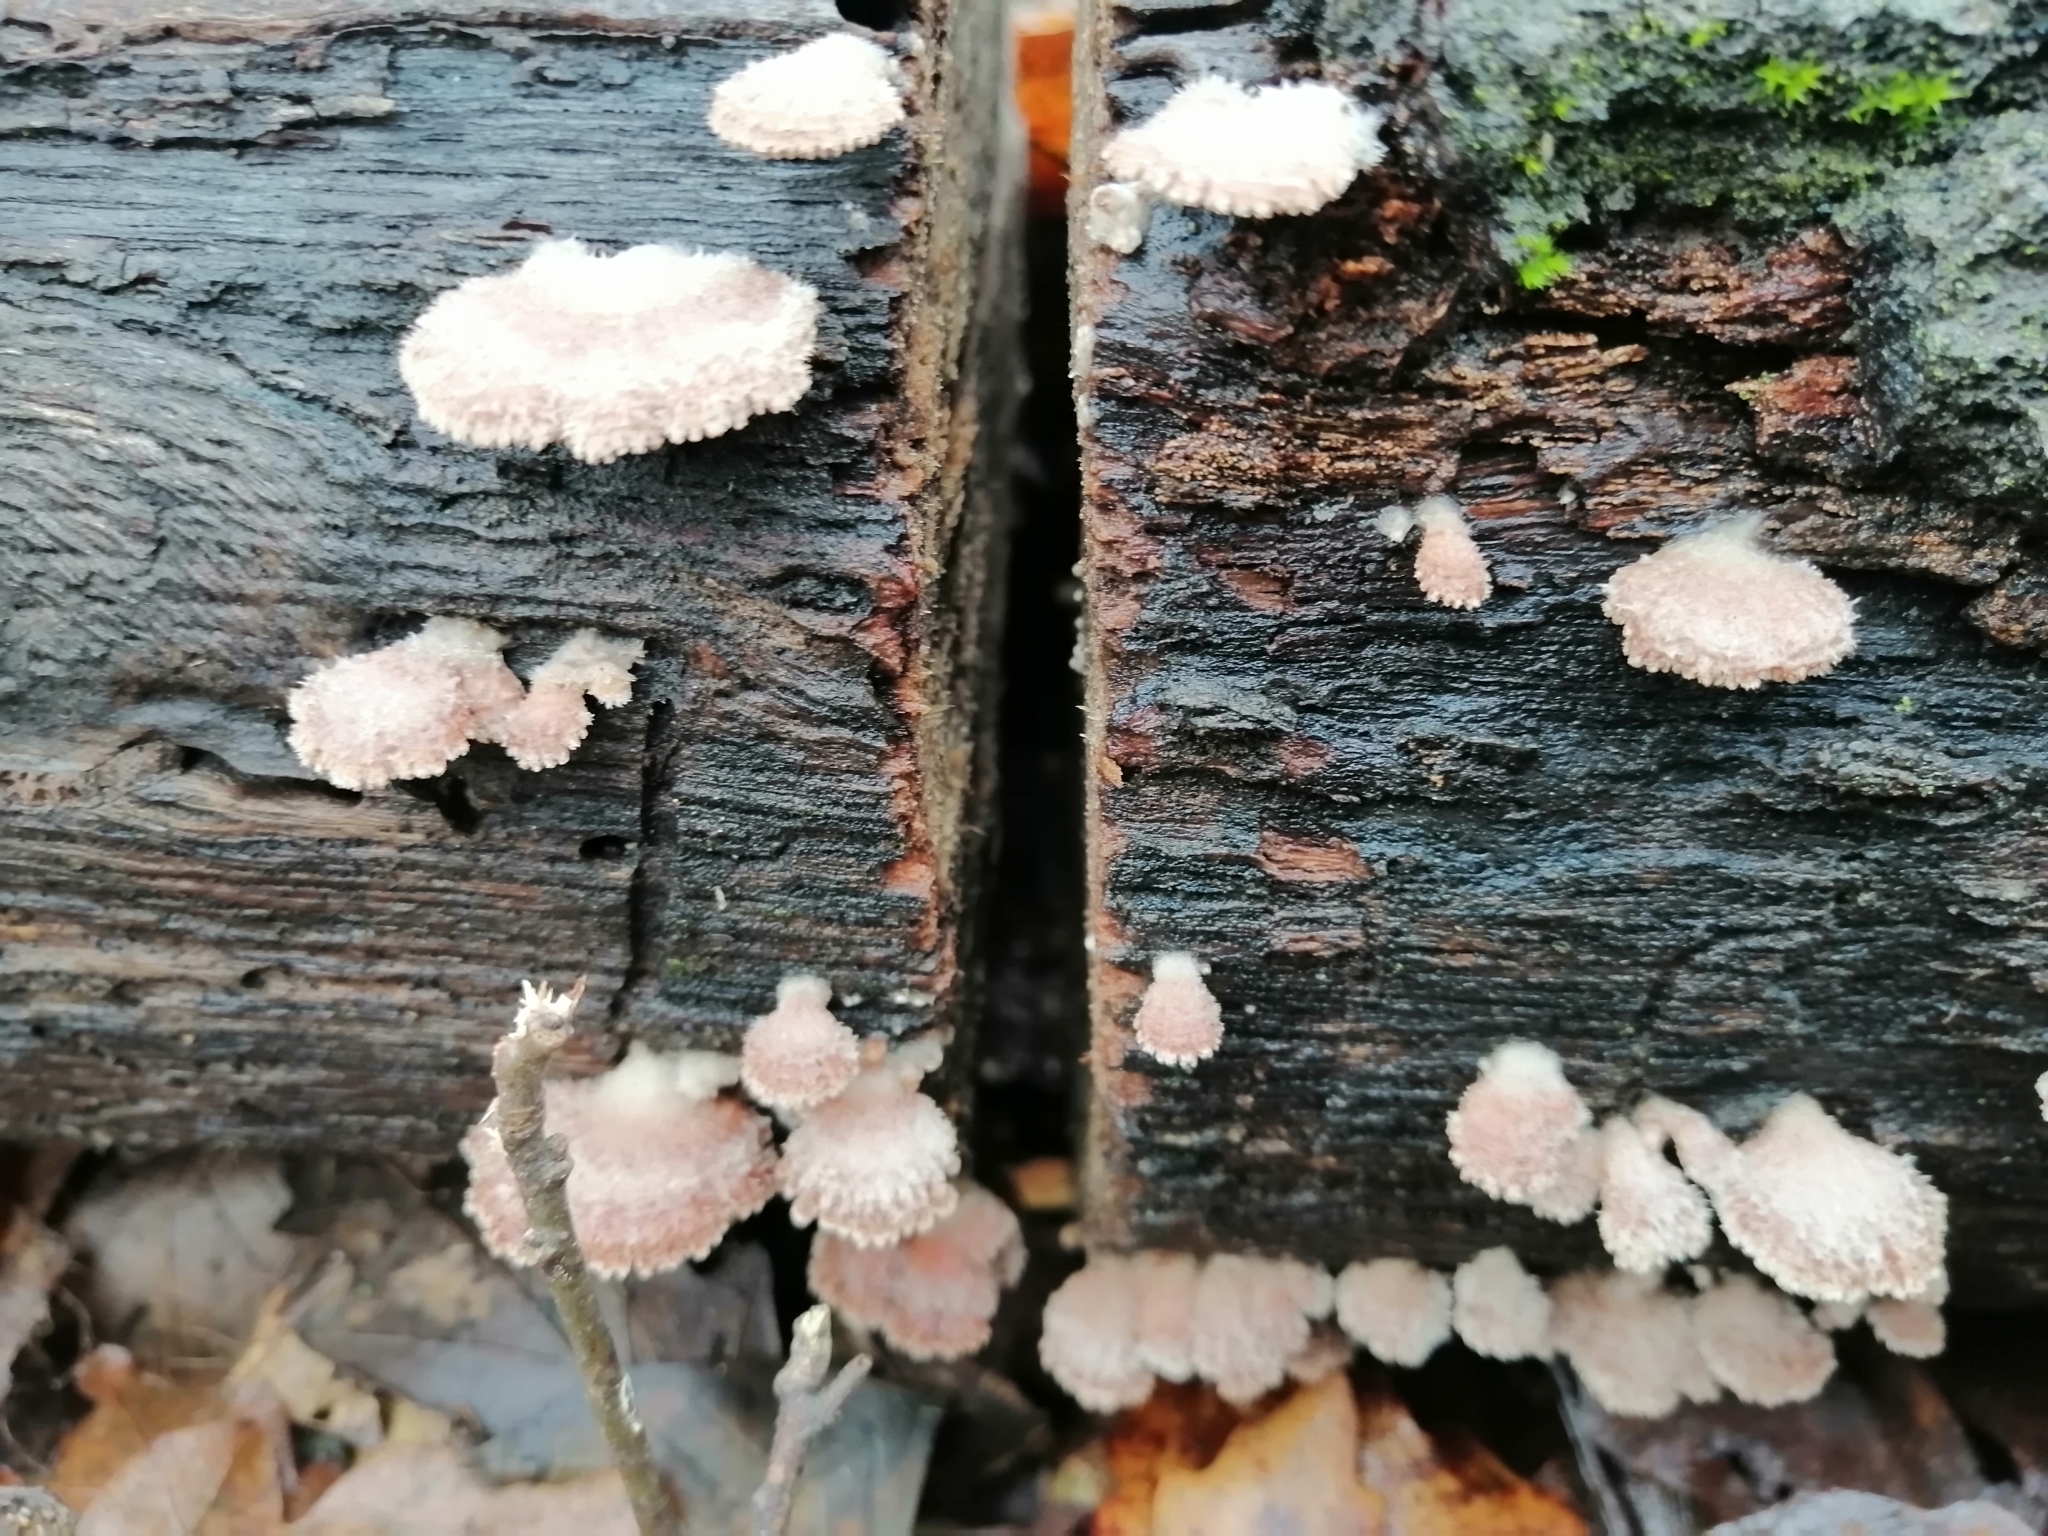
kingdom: Fungi
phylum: Basidiomycota
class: Agaricomycetes
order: Agaricales
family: Schizophyllaceae
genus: Schizophyllum
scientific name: Schizophyllum commune
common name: Common porecrust
